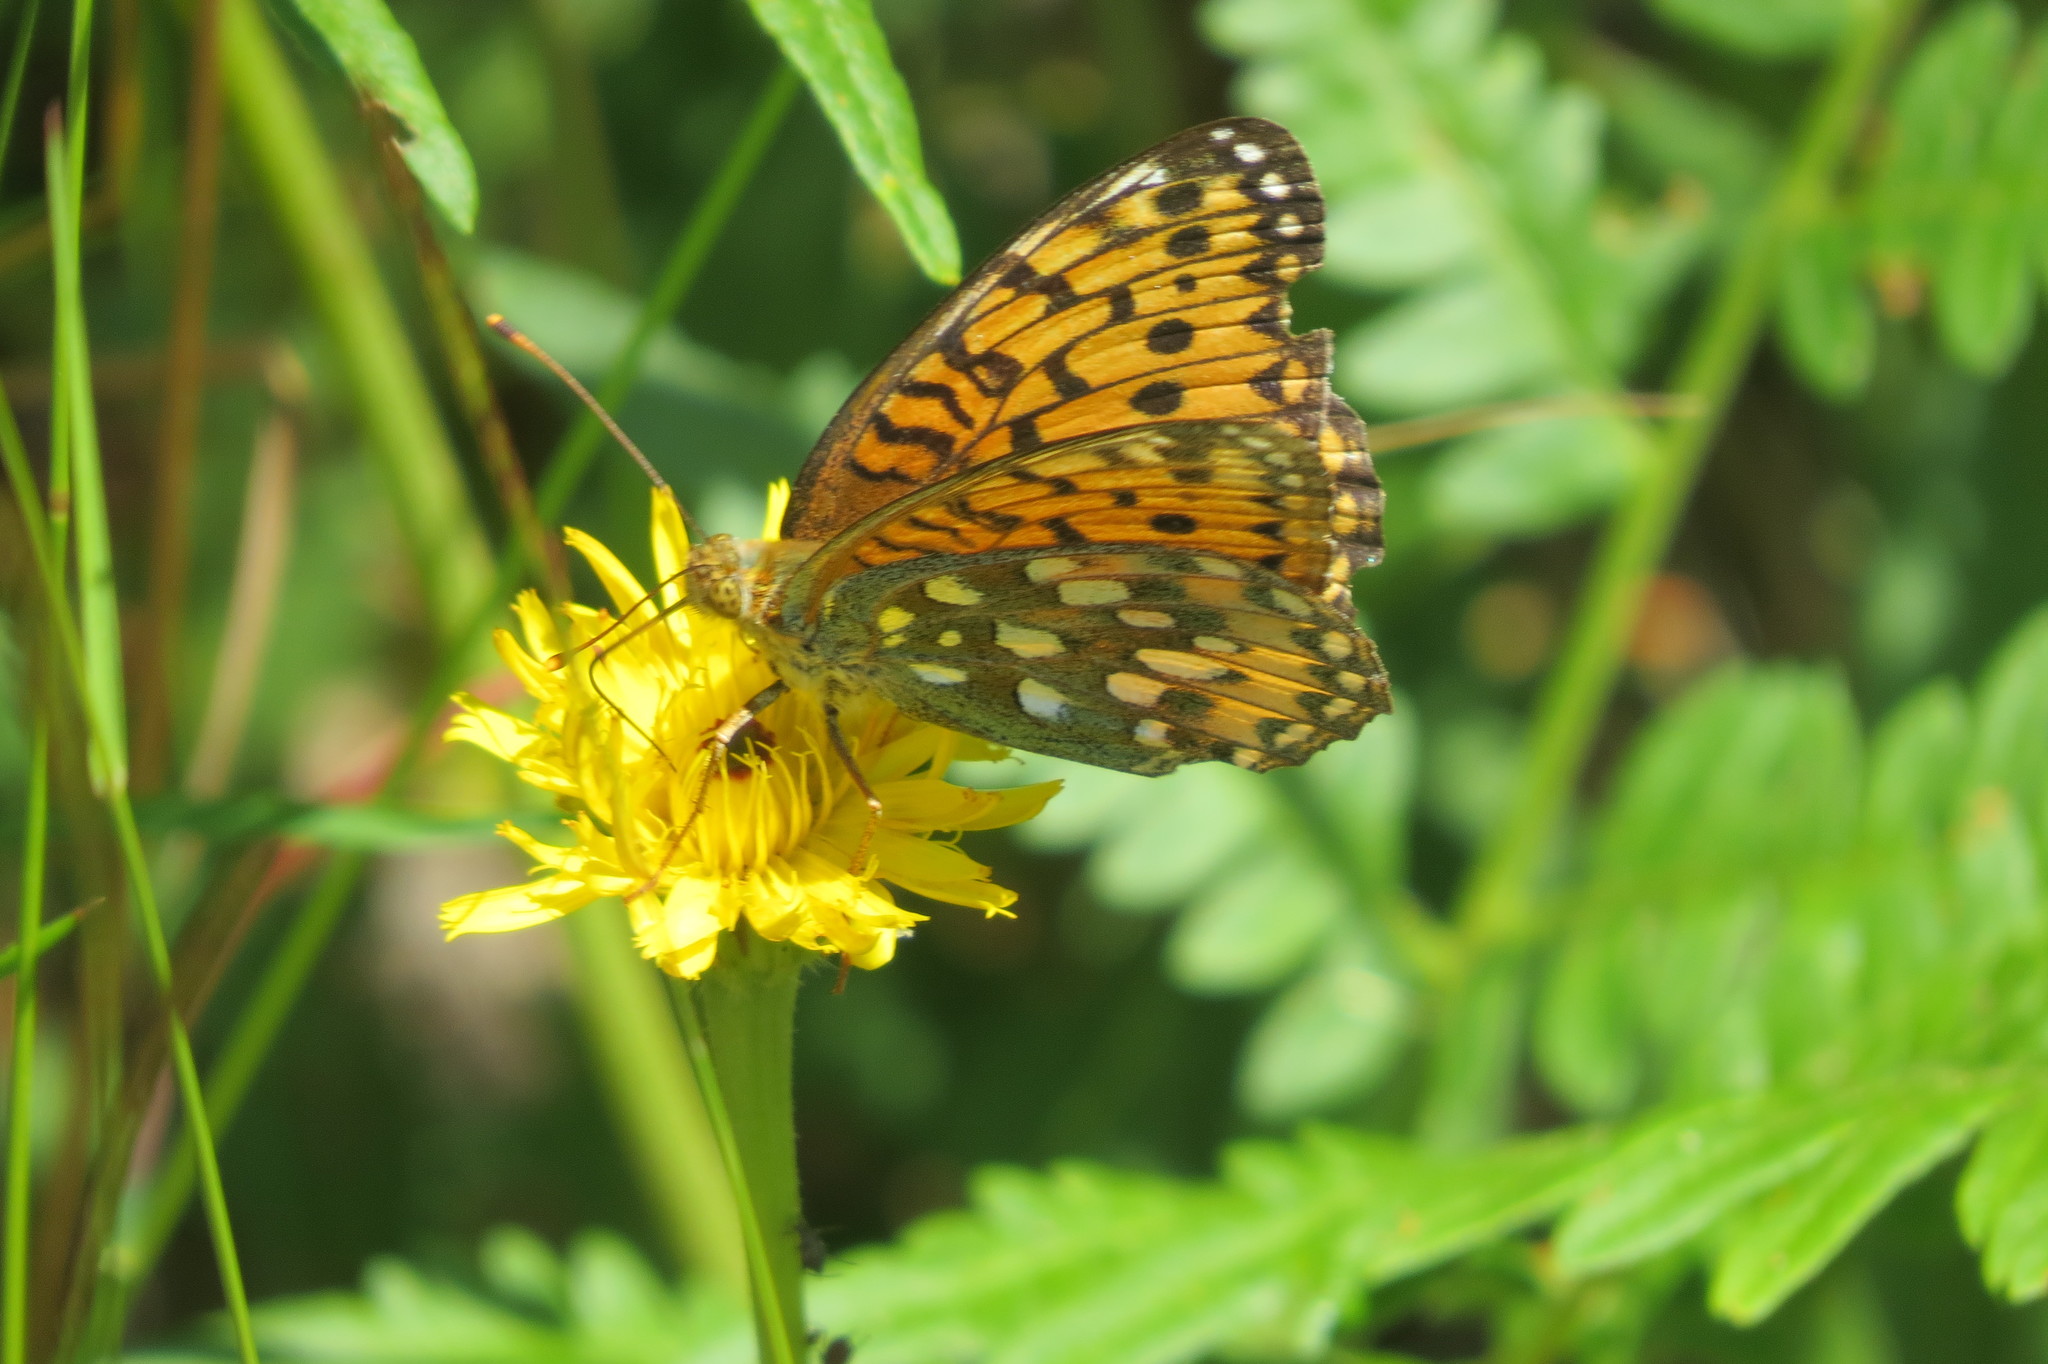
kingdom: Animalia
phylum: Arthropoda
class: Insecta
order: Lepidoptera
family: Nymphalidae
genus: Speyeria
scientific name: Speyeria aglaja
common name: Dark green fritillary
